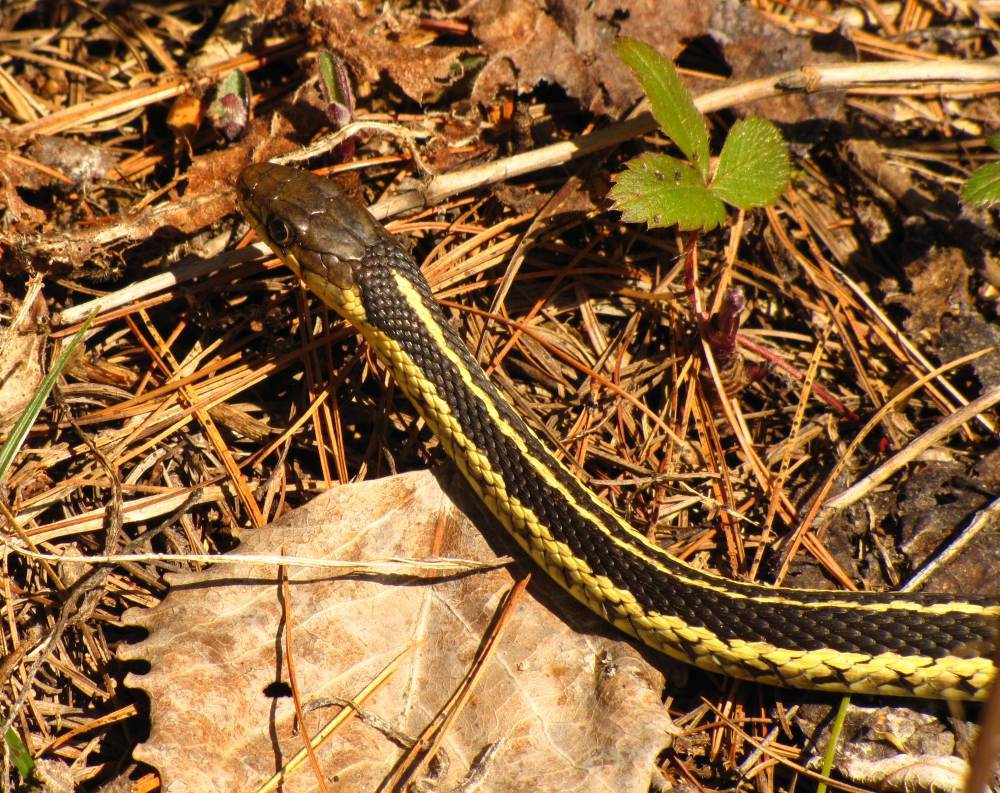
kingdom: Animalia
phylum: Chordata
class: Squamata
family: Colubridae
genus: Thamnophis
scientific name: Thamnophis sirtalis
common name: Common garter snake
